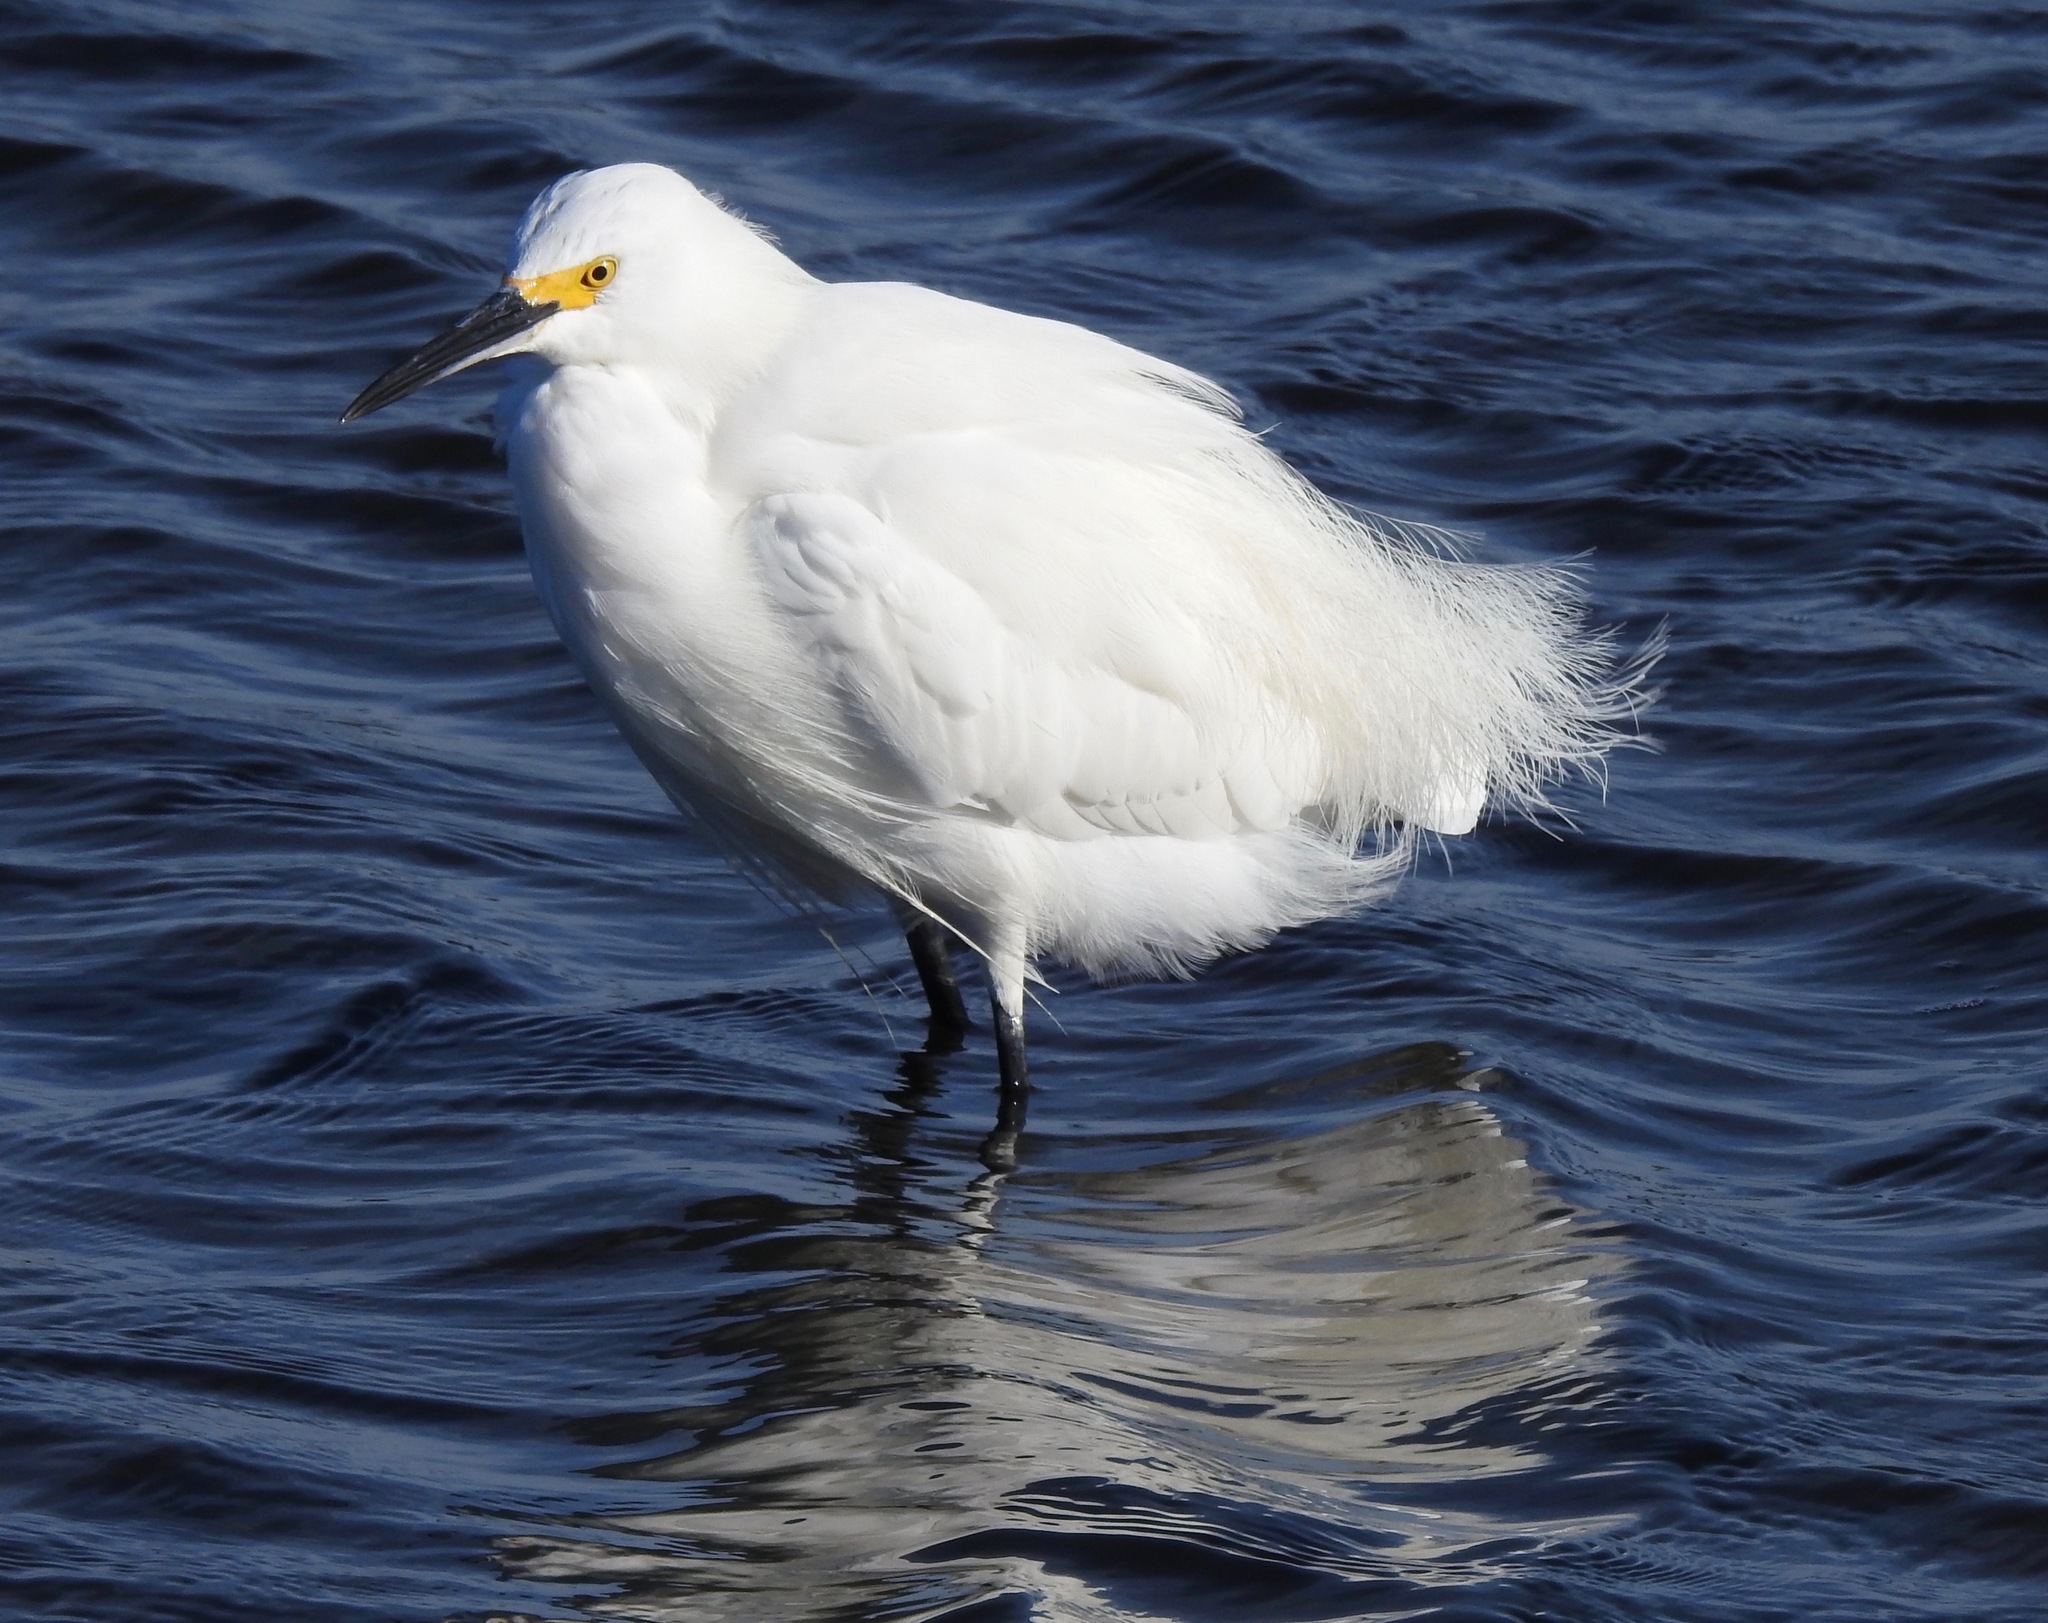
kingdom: Animalia
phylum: Chordata
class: Aves
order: Pelecaniformes
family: Ardeidae
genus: Egretta
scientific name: Egretta thula
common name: Snowy egret
